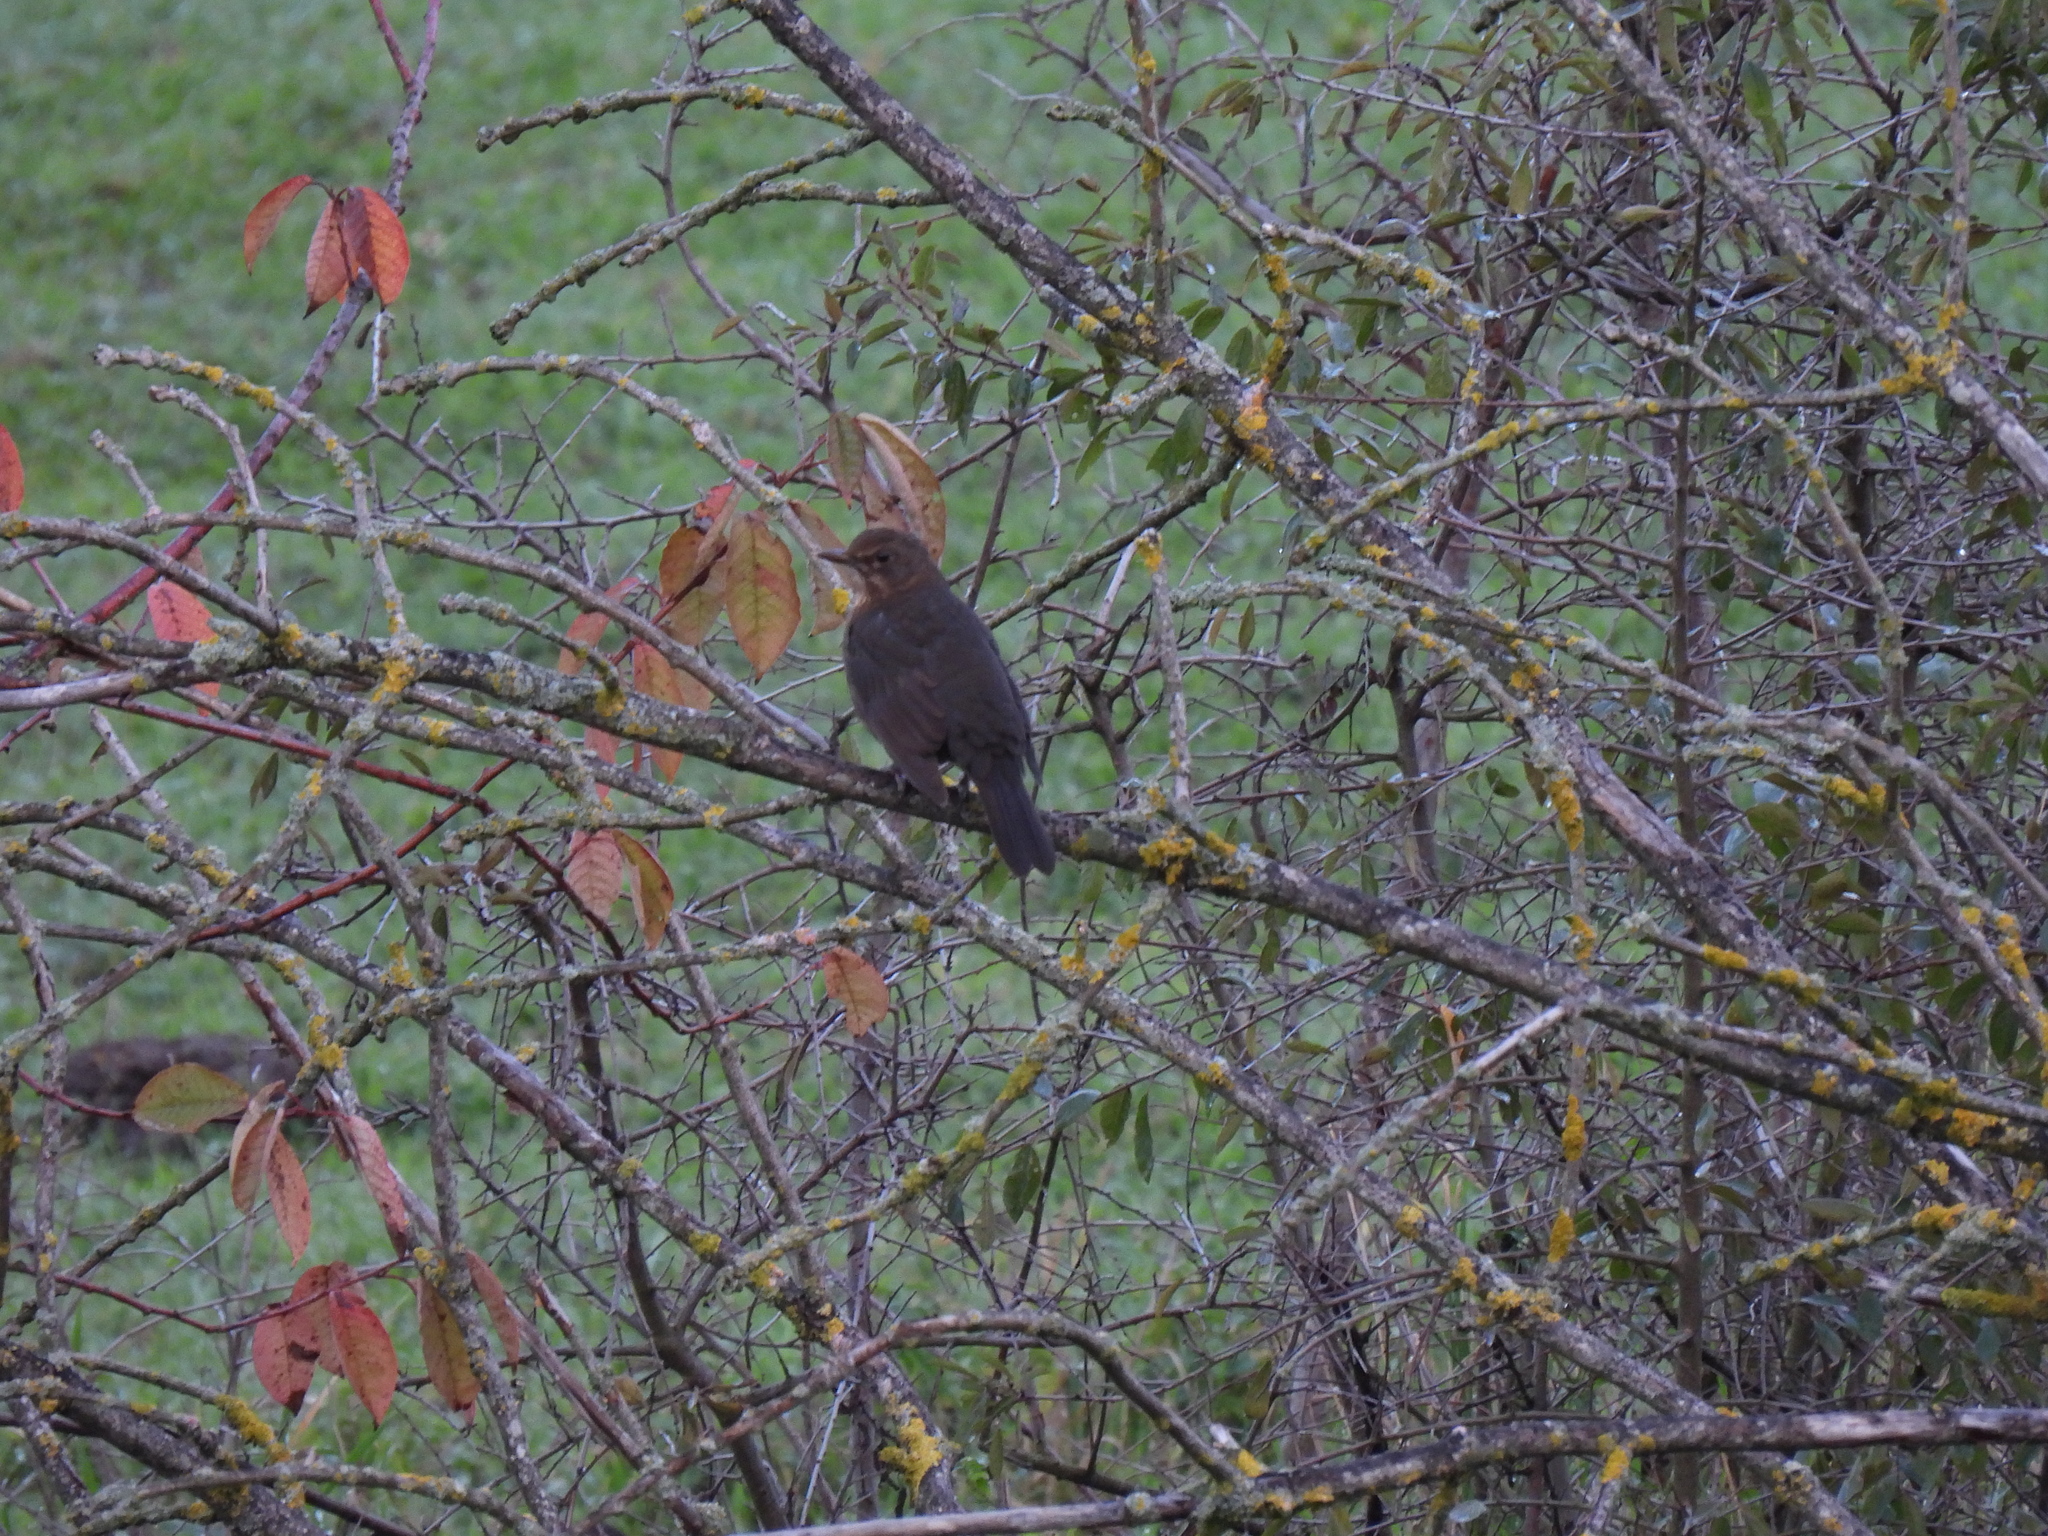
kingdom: Animalia
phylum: Chordata
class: Aves
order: Passeriformes
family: Turdidae
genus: Turdus
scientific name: Turdus merula
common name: Common blackbird
